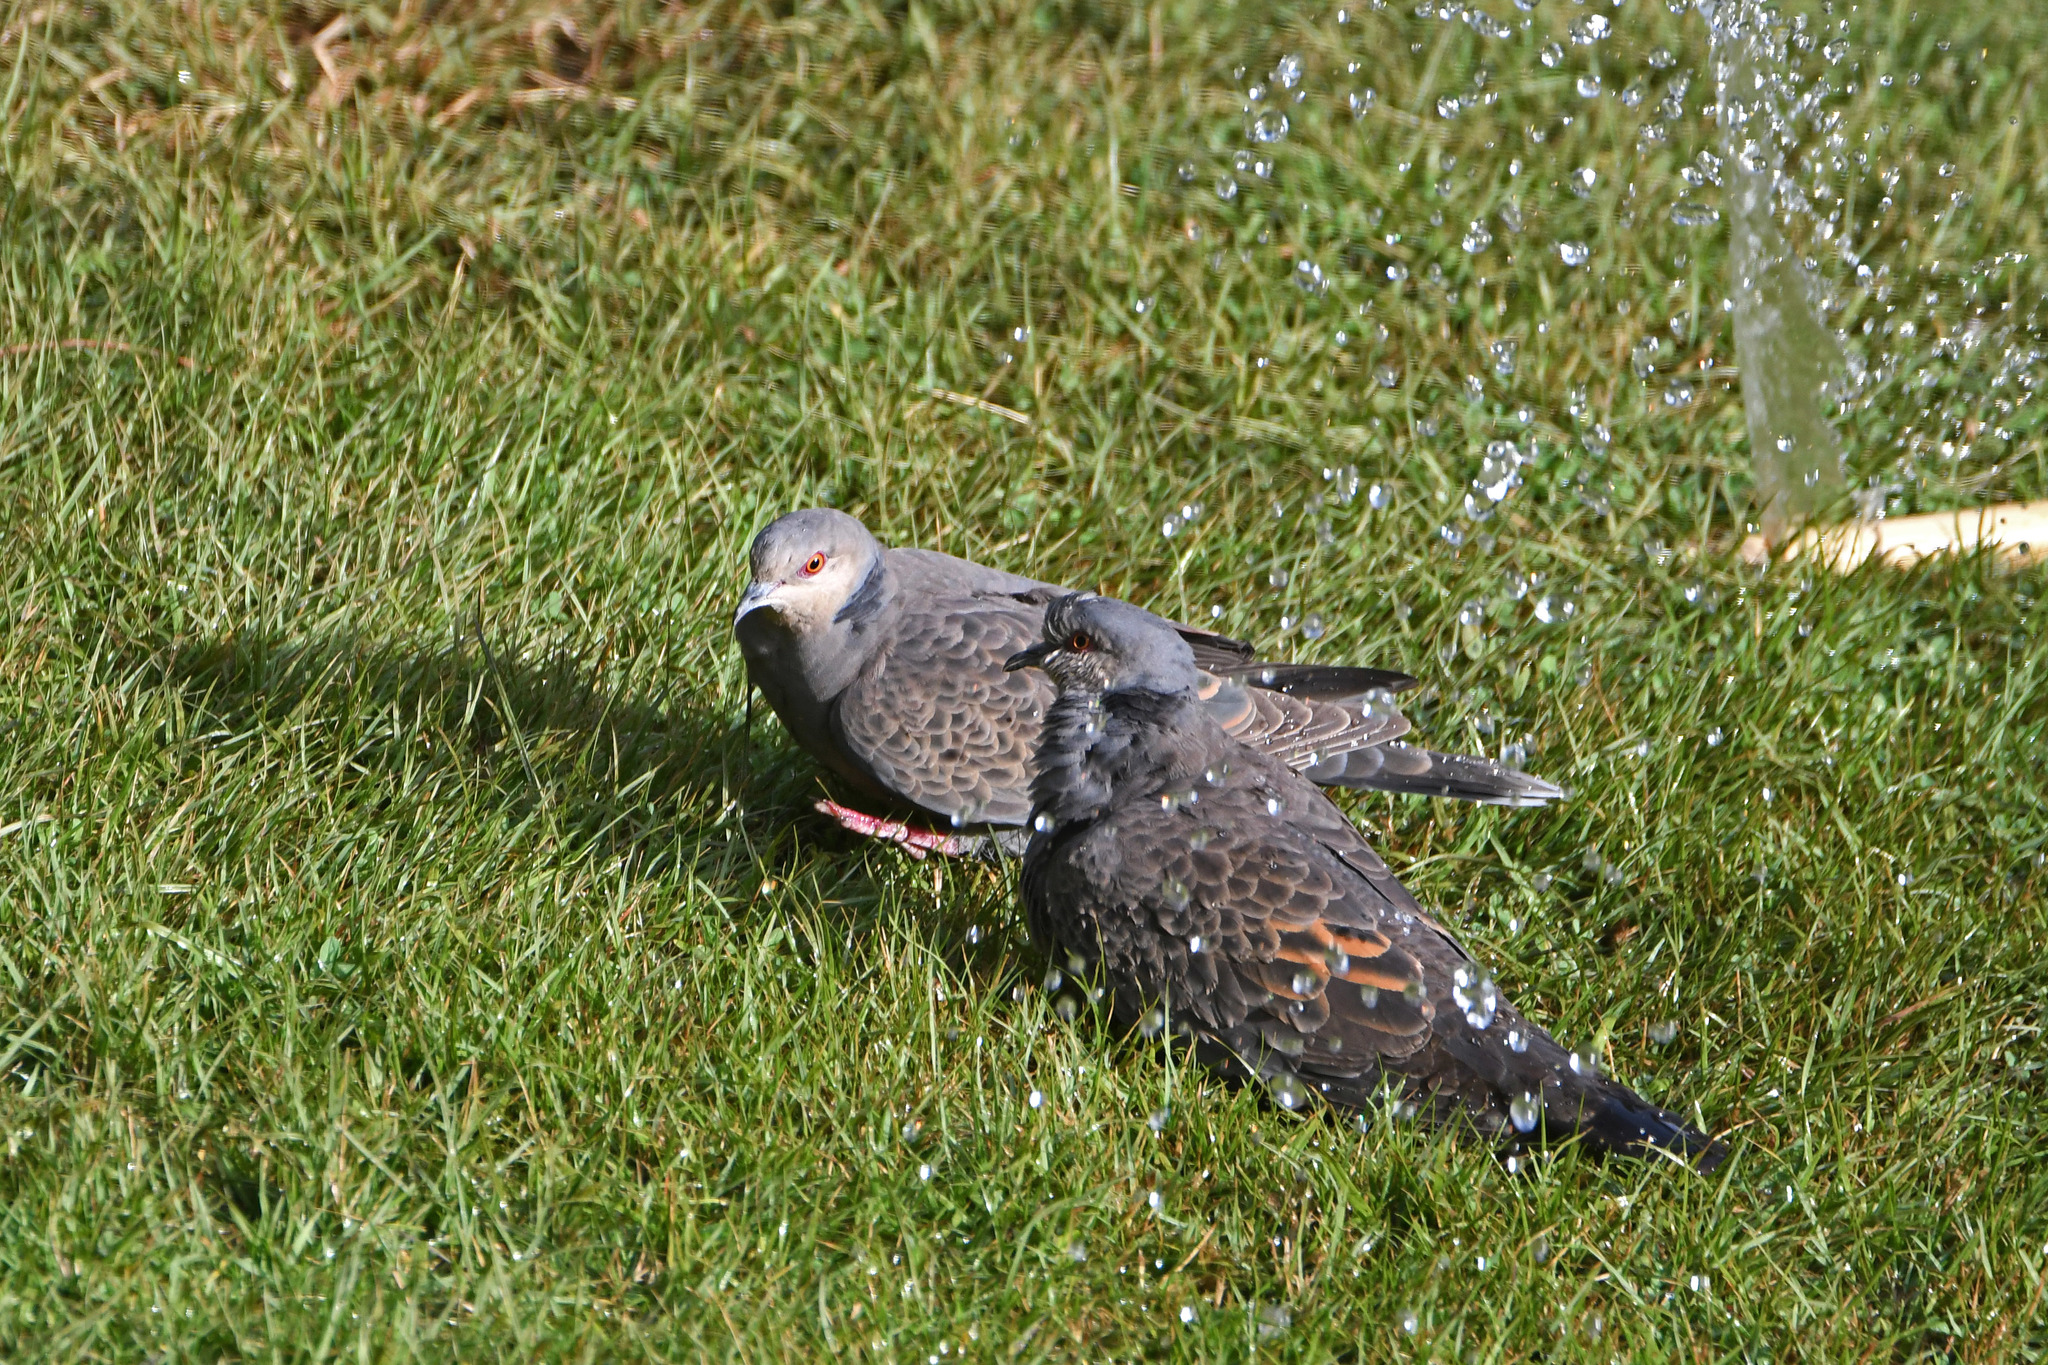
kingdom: Animalia
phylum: Chordata
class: Aves
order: Columbiformes
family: Columbidae
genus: Streptopelia
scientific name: Streptopelia lugens
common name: Dusky turtle dove
